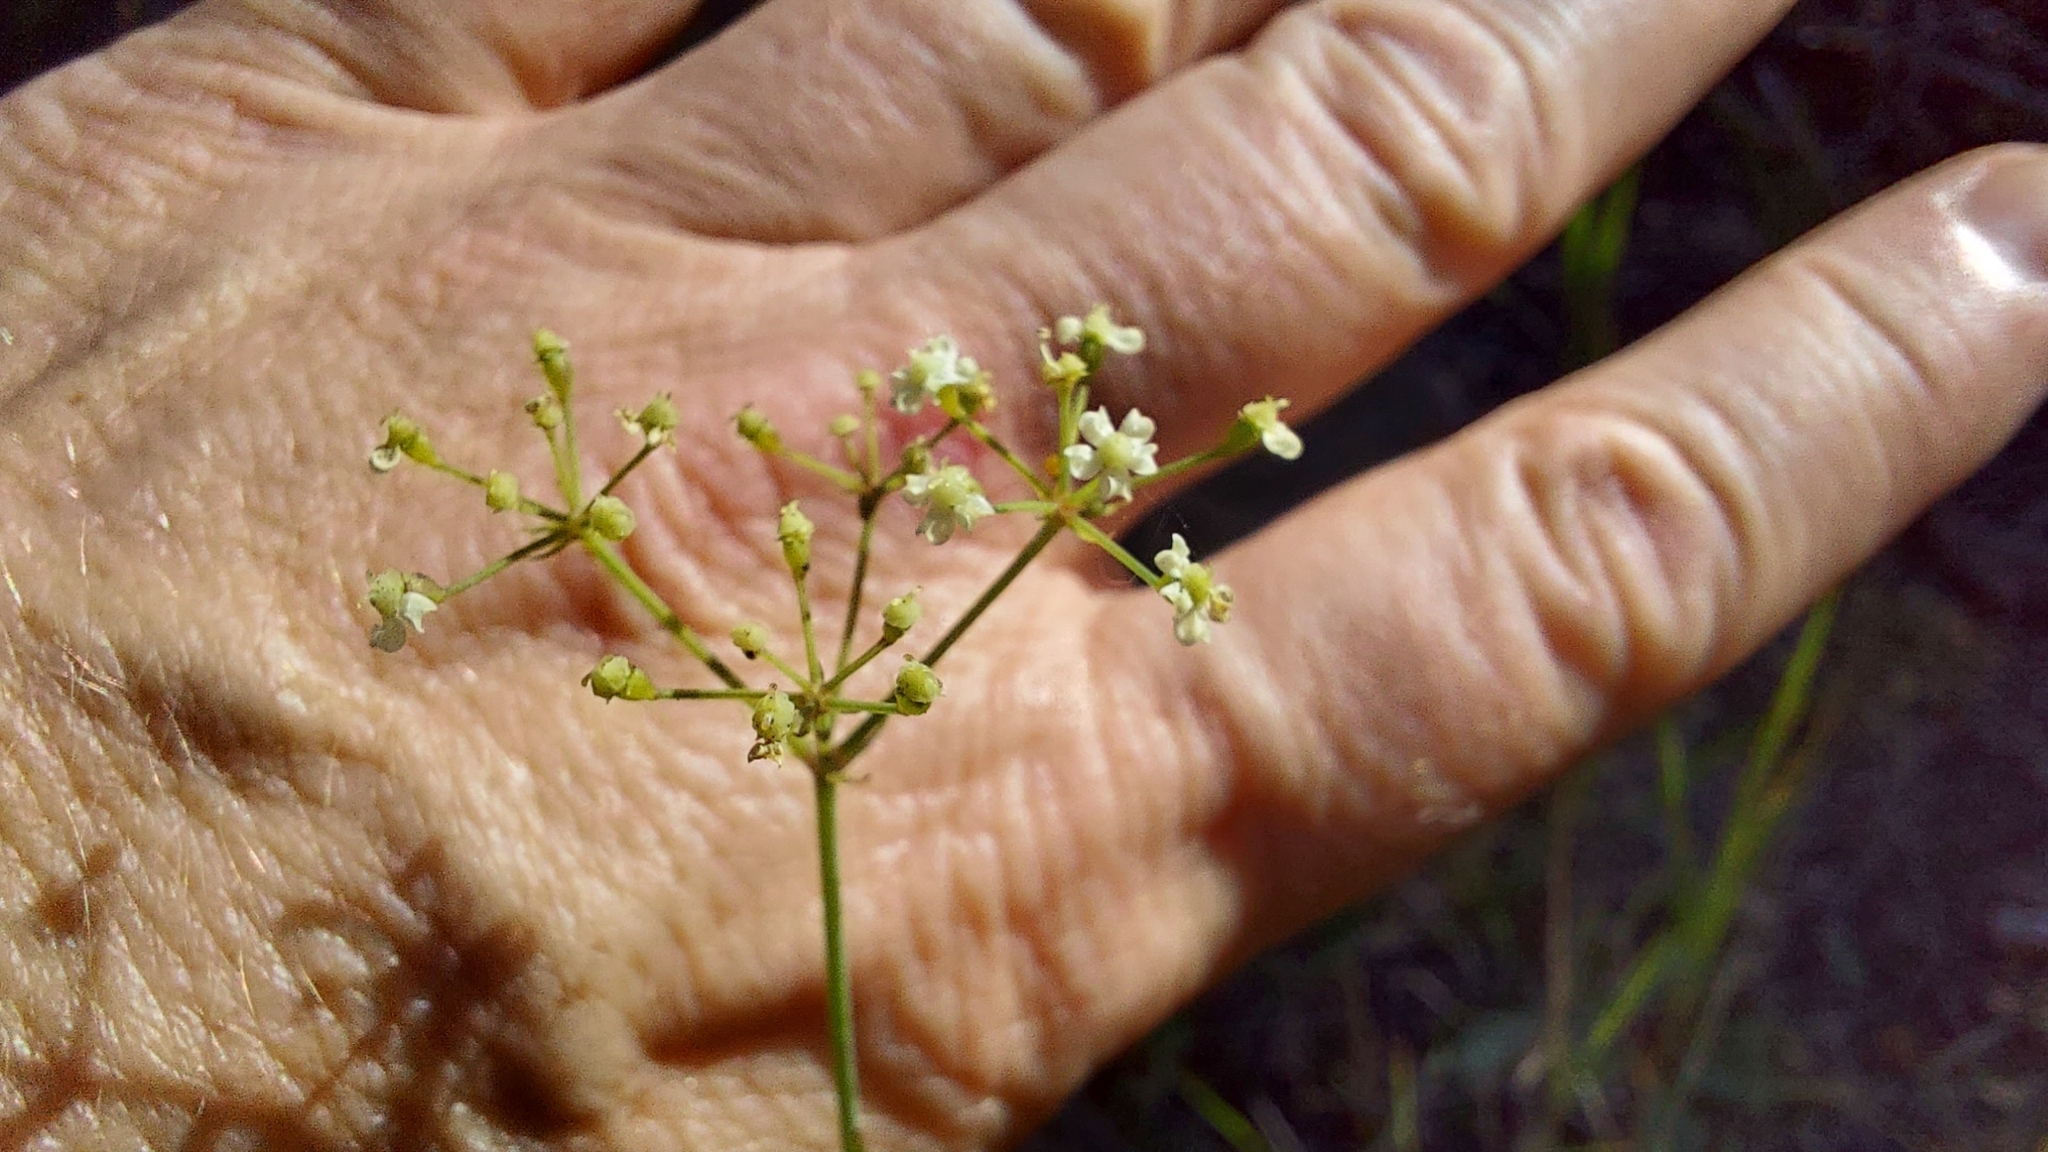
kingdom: Plantae
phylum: Tracheophyta
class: Magnoliopsida
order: Apiales
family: Apiaceae
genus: Tiedemannia
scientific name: Tiedemannia filiformis
